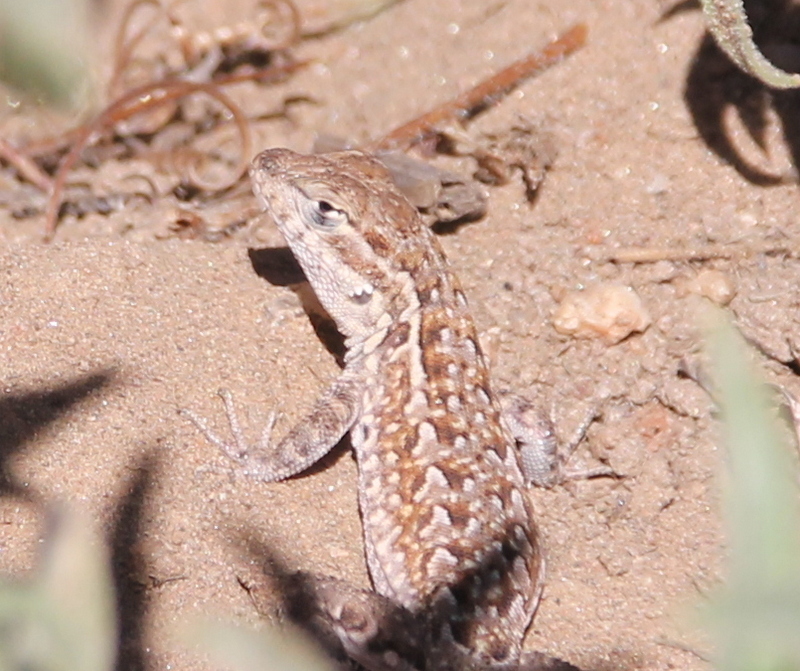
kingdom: Animalia
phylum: Chordata
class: Squamata
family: Phrynosomatidae
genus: Uta
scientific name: Uta stansburiana
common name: Side-blotched lizard
